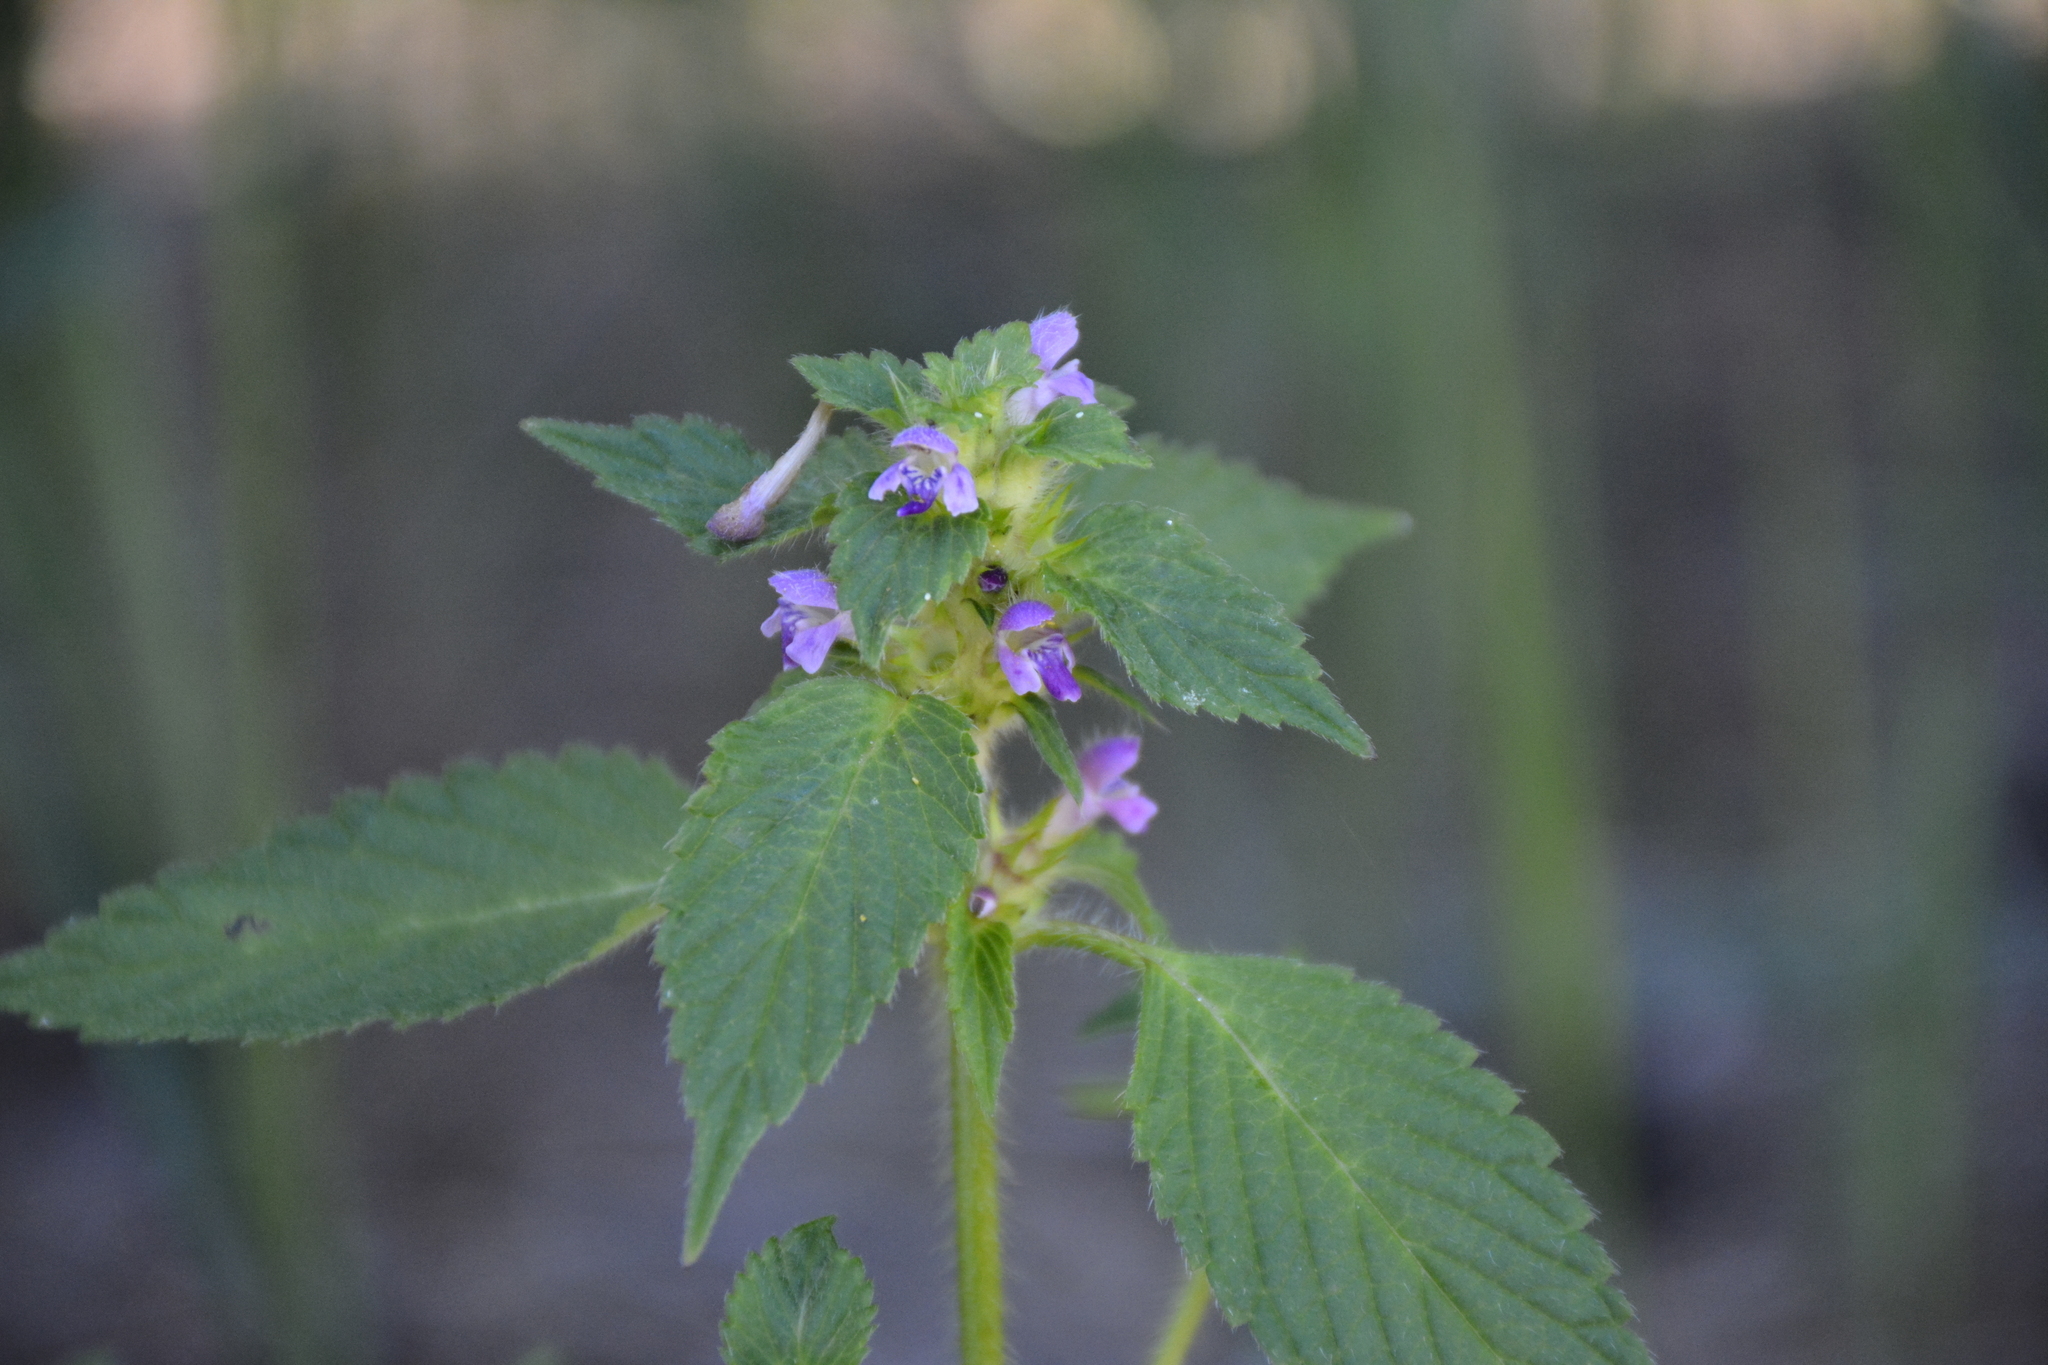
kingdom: Plantae
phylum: Tracheophyta
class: Magnoliopsida
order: Lamiales
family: Lamiaceae
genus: Galeopsis
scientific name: Galeopsis bifida
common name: Bifid hemp-nettle
